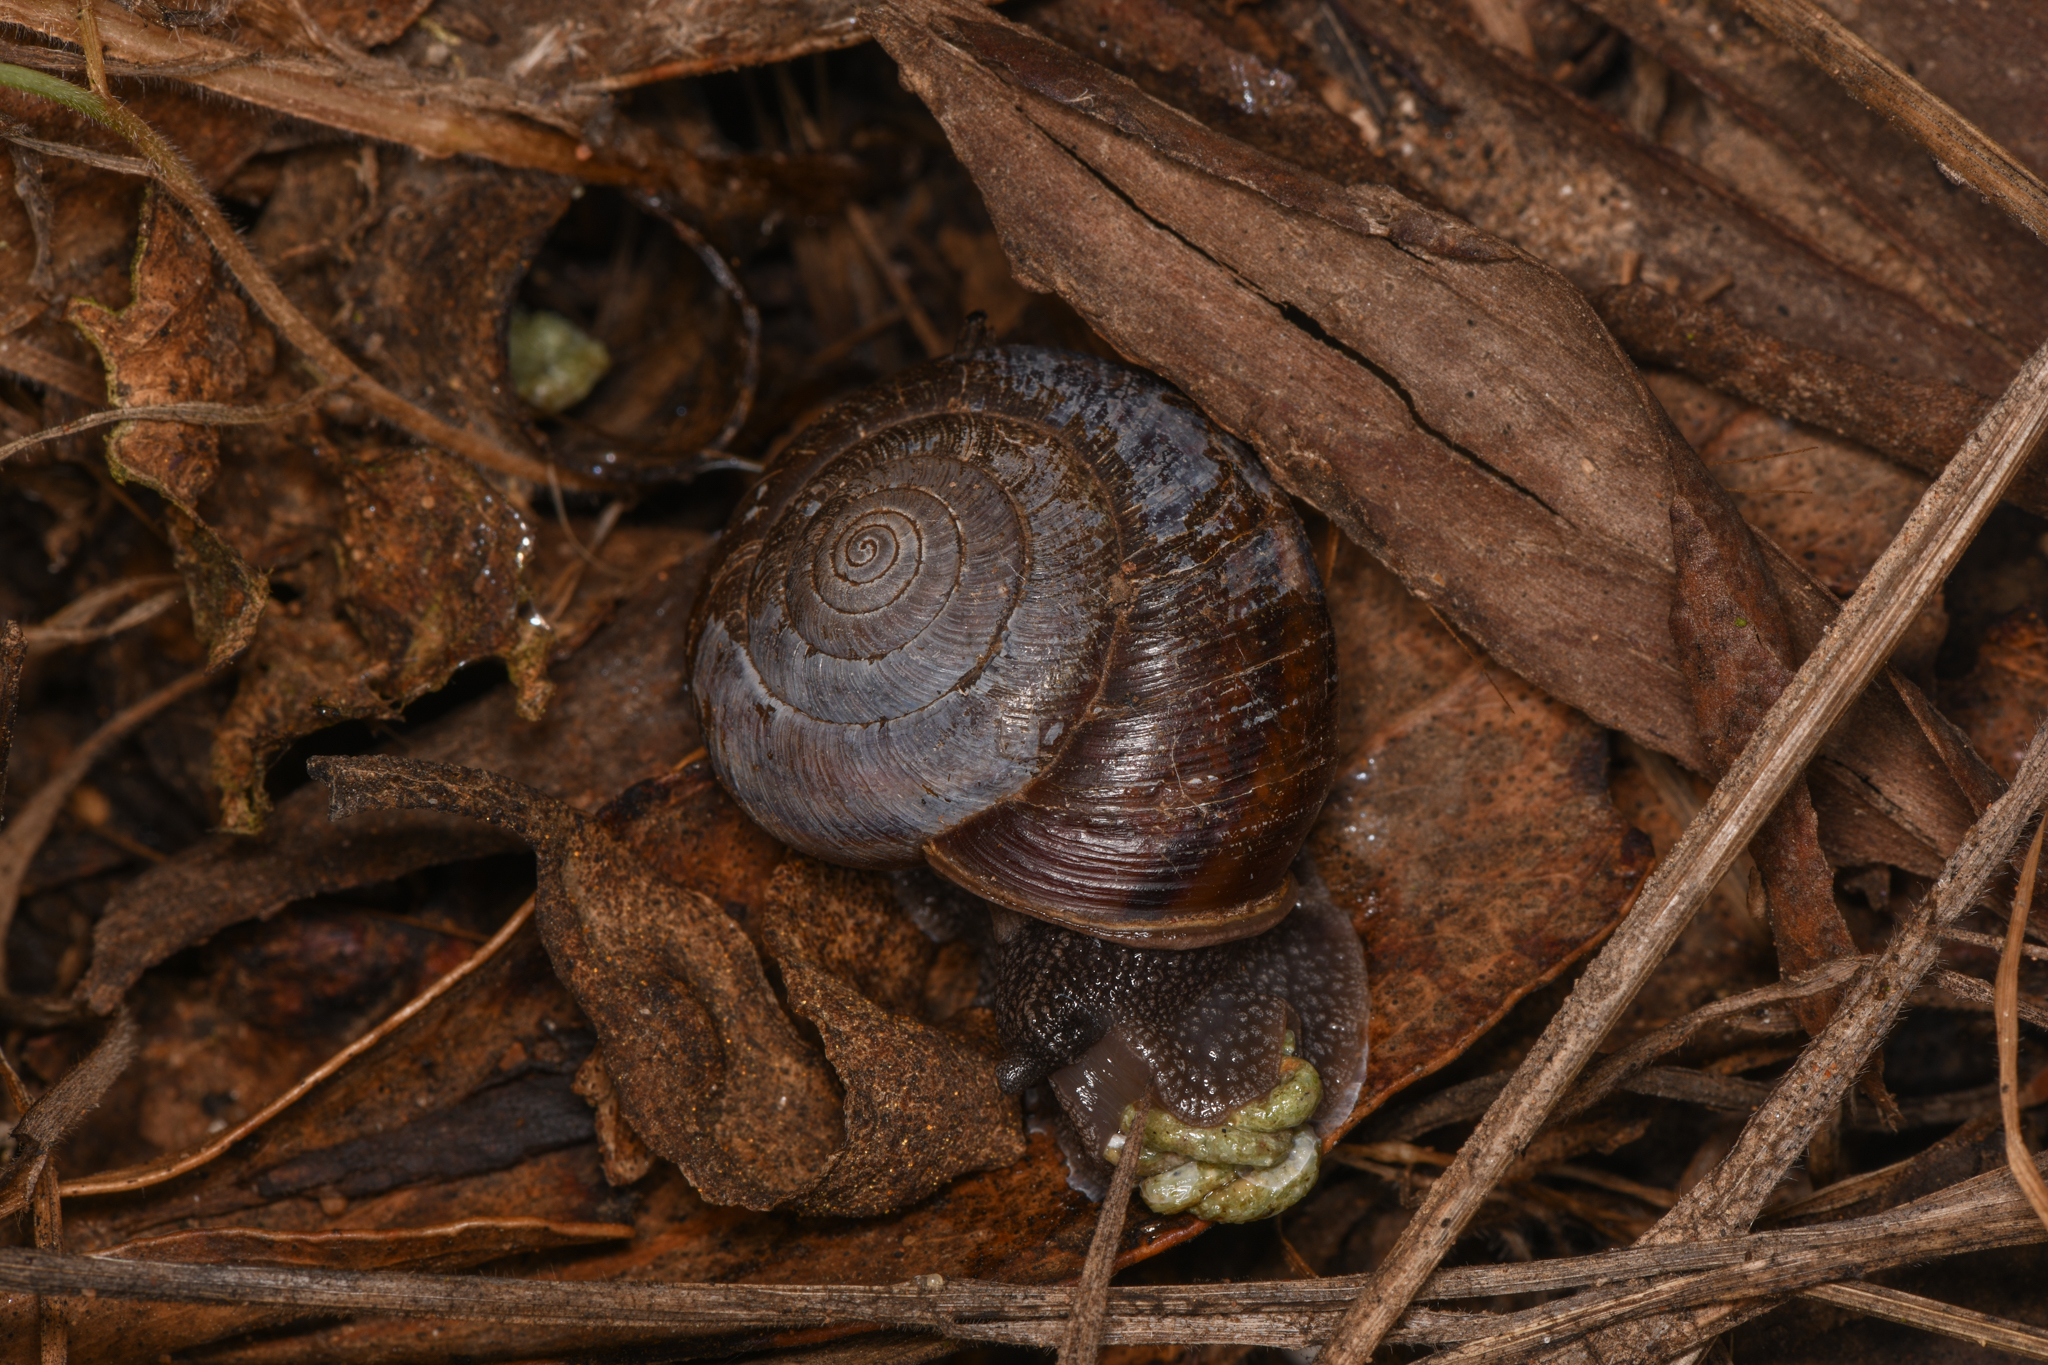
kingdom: Animalia
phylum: Mollusca
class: Gastropoda
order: Stylommatophora
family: Xanthonychidae
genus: Helminthoglypta
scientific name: Helminthoglypta umbilicata
